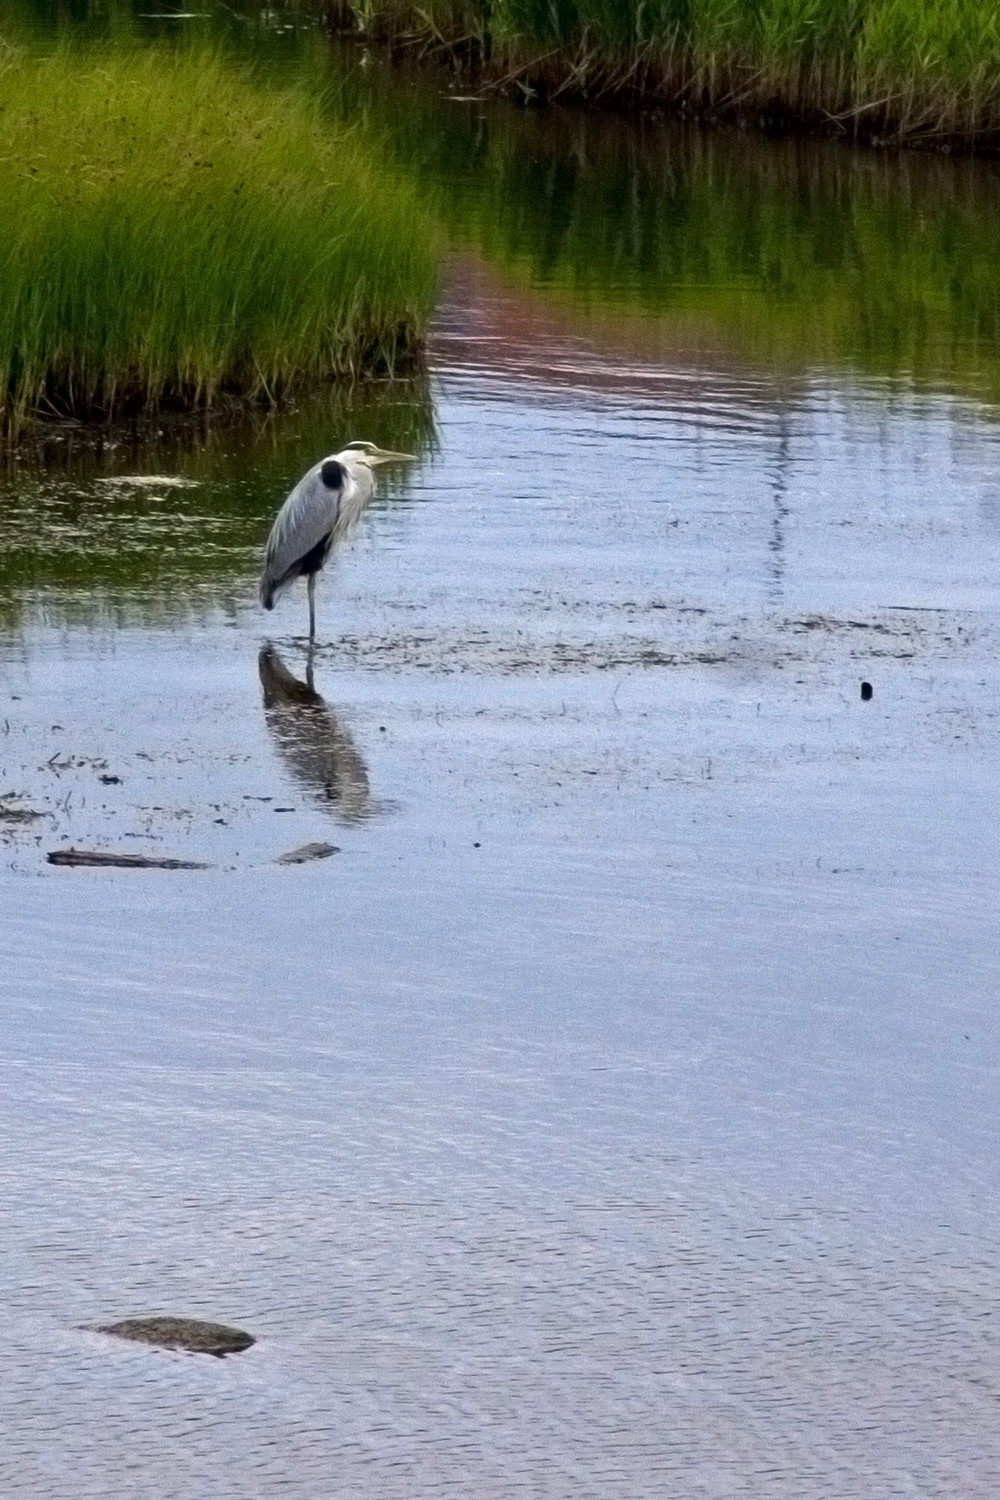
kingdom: Animalia
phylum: Chordata
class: Aves
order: Pelecaniformes
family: Ardeidae
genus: Ardea
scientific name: Ardea cinerea
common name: Grey heron
